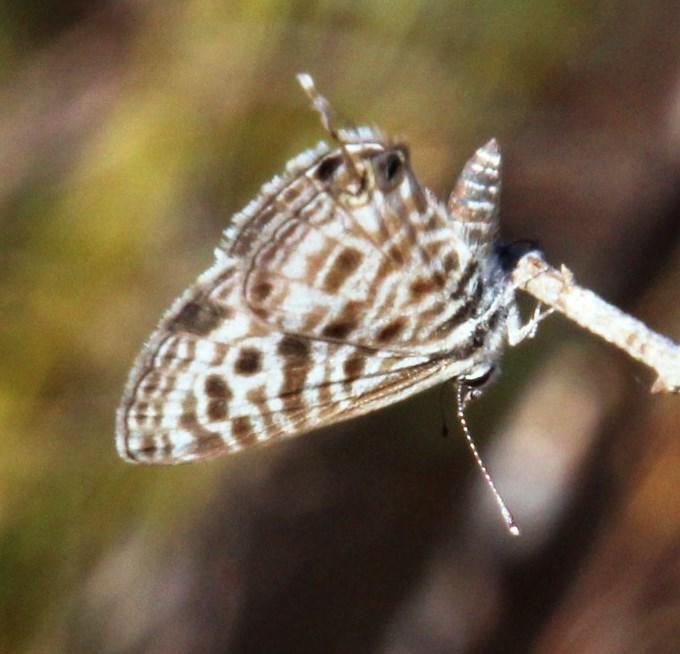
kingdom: Animalia
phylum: Arthropoda
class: Insecta
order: Lepidoptera
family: Lycaenidae
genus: Leptotes
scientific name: Leptotes
